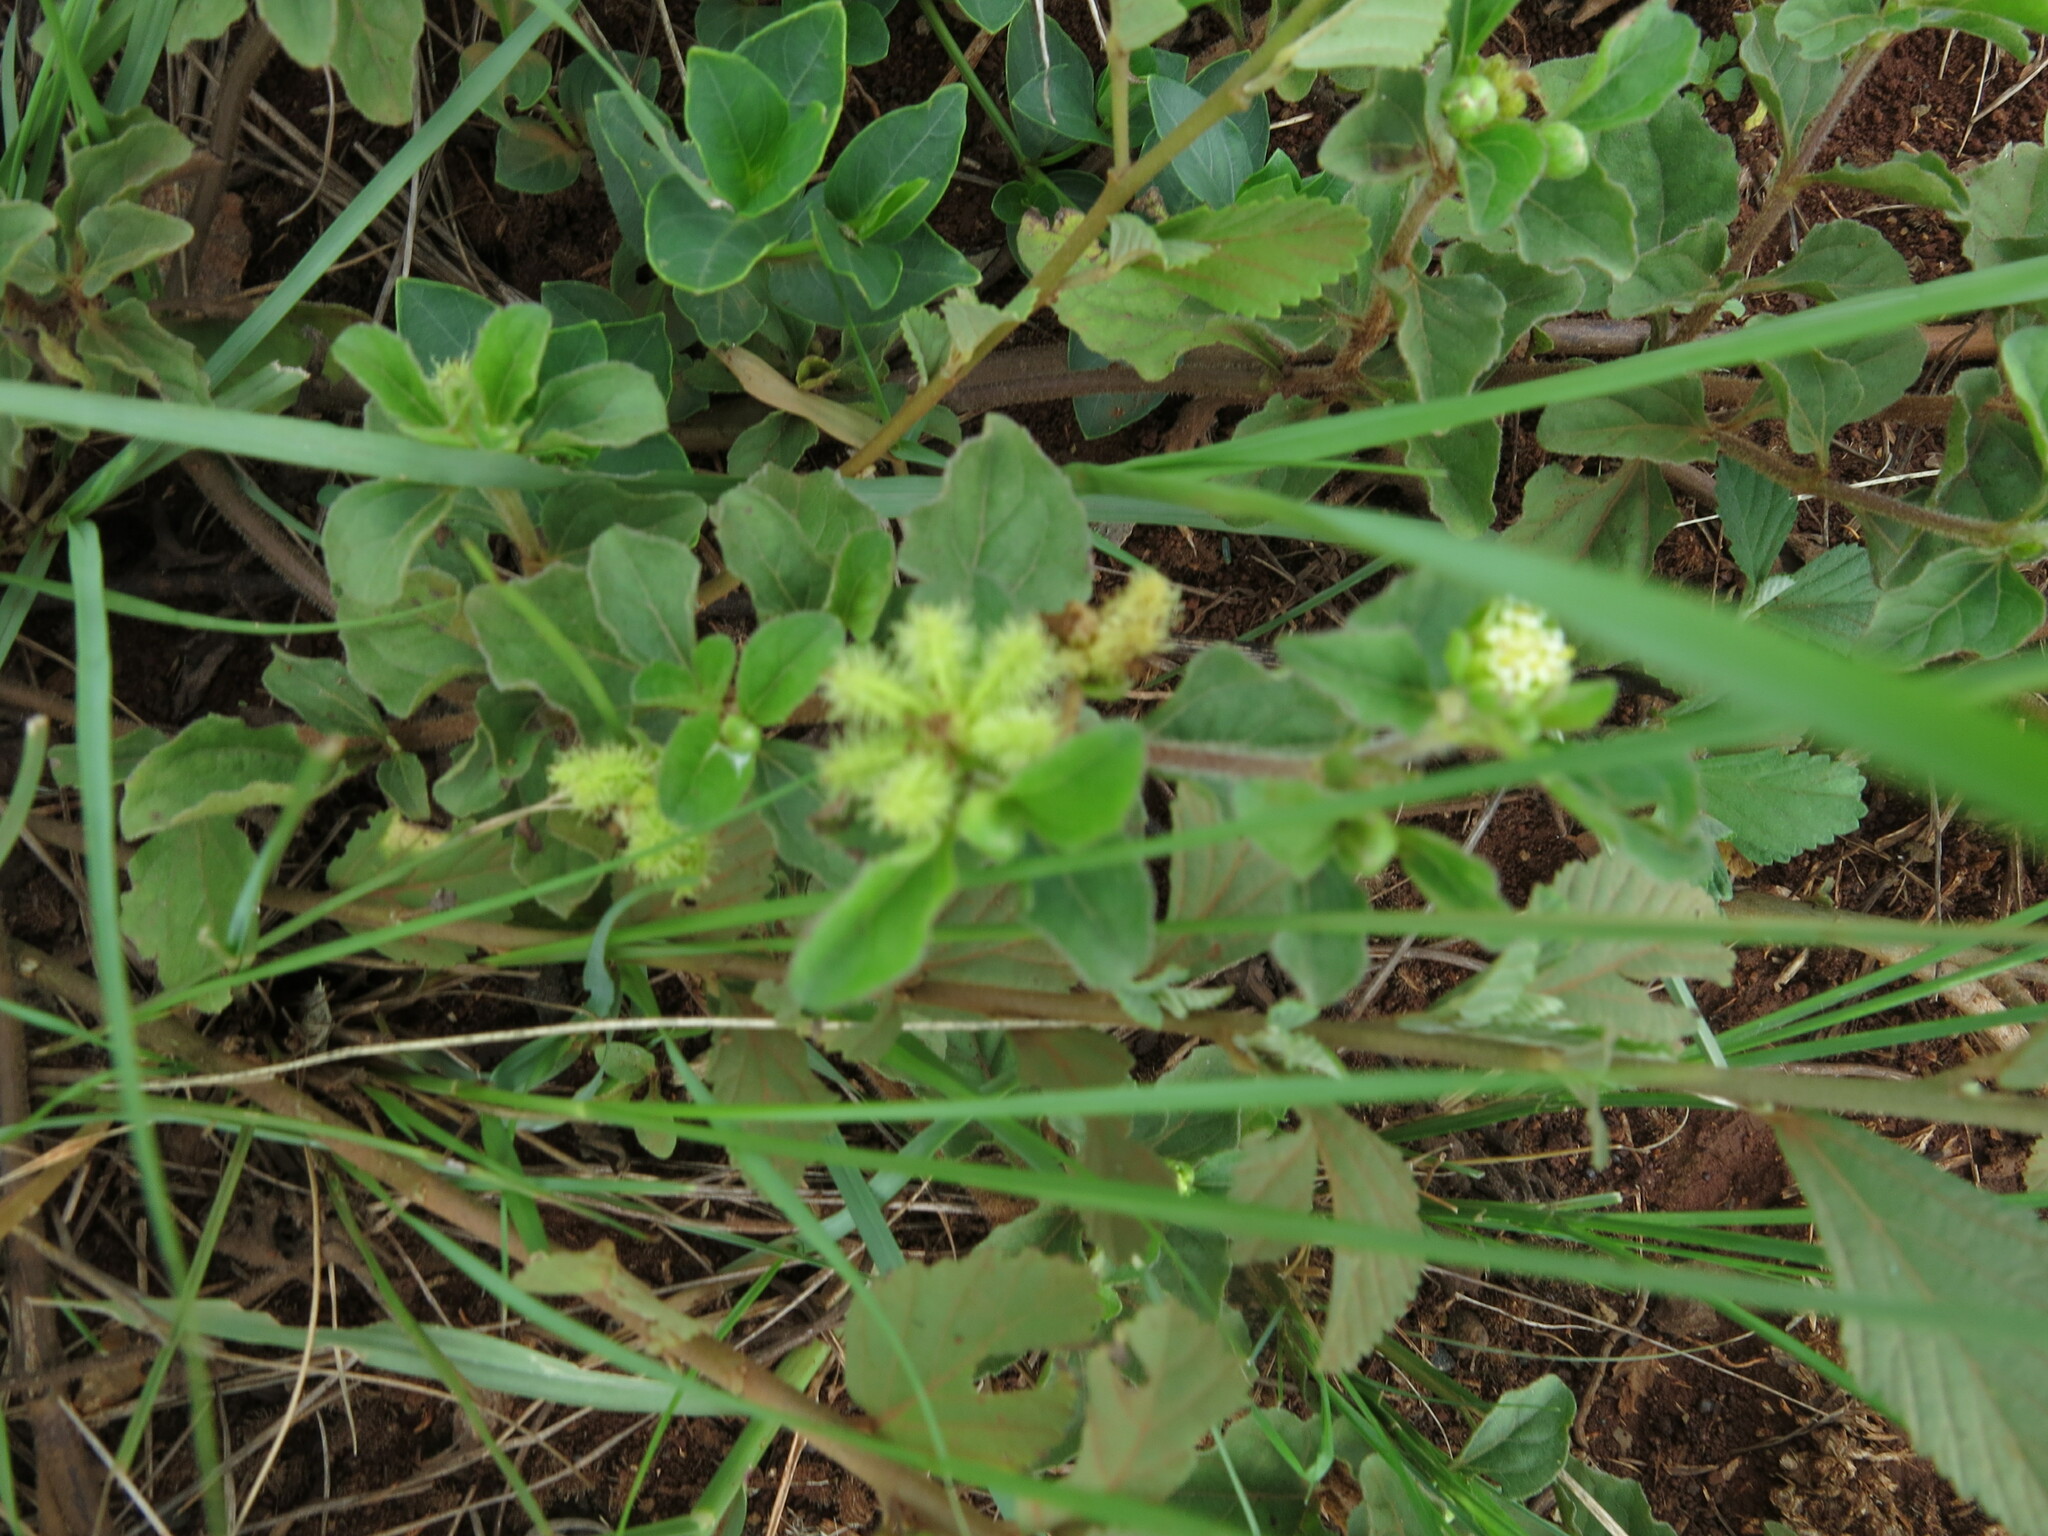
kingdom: Plantae
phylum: Tracheophyta
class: Magnoliopsida
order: Asterales
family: Asteraceae
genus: Acanthospermum
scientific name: Acanthospermum australe
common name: Paraguayan starbur
